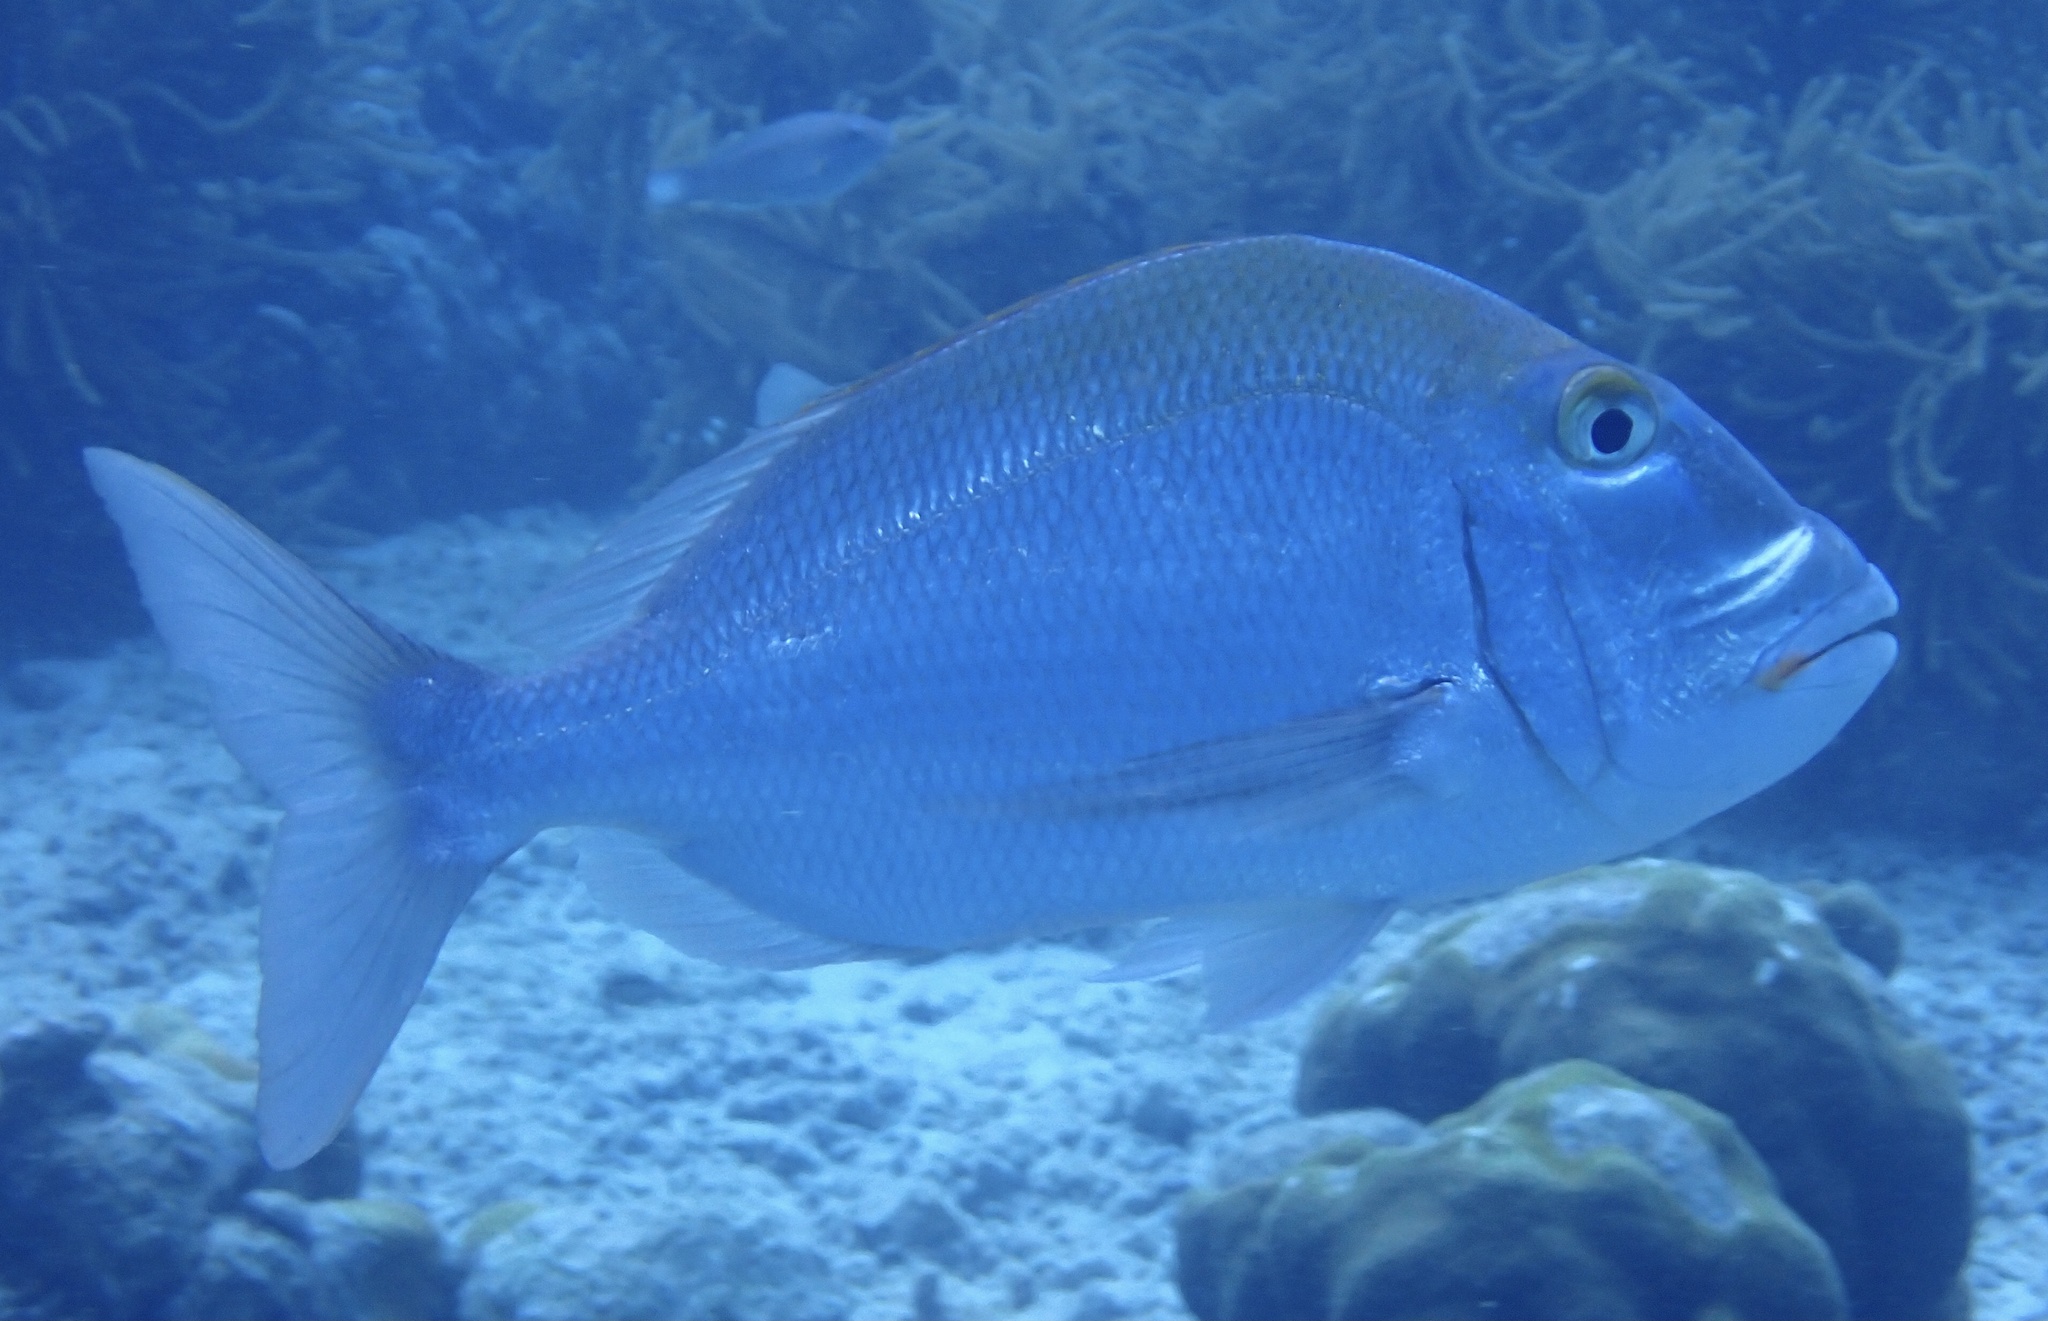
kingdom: Animalia
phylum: Chordata
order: Perciformes
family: Sparidae
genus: Calamus
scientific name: Calamus bajonado
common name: Jolthead porgy
